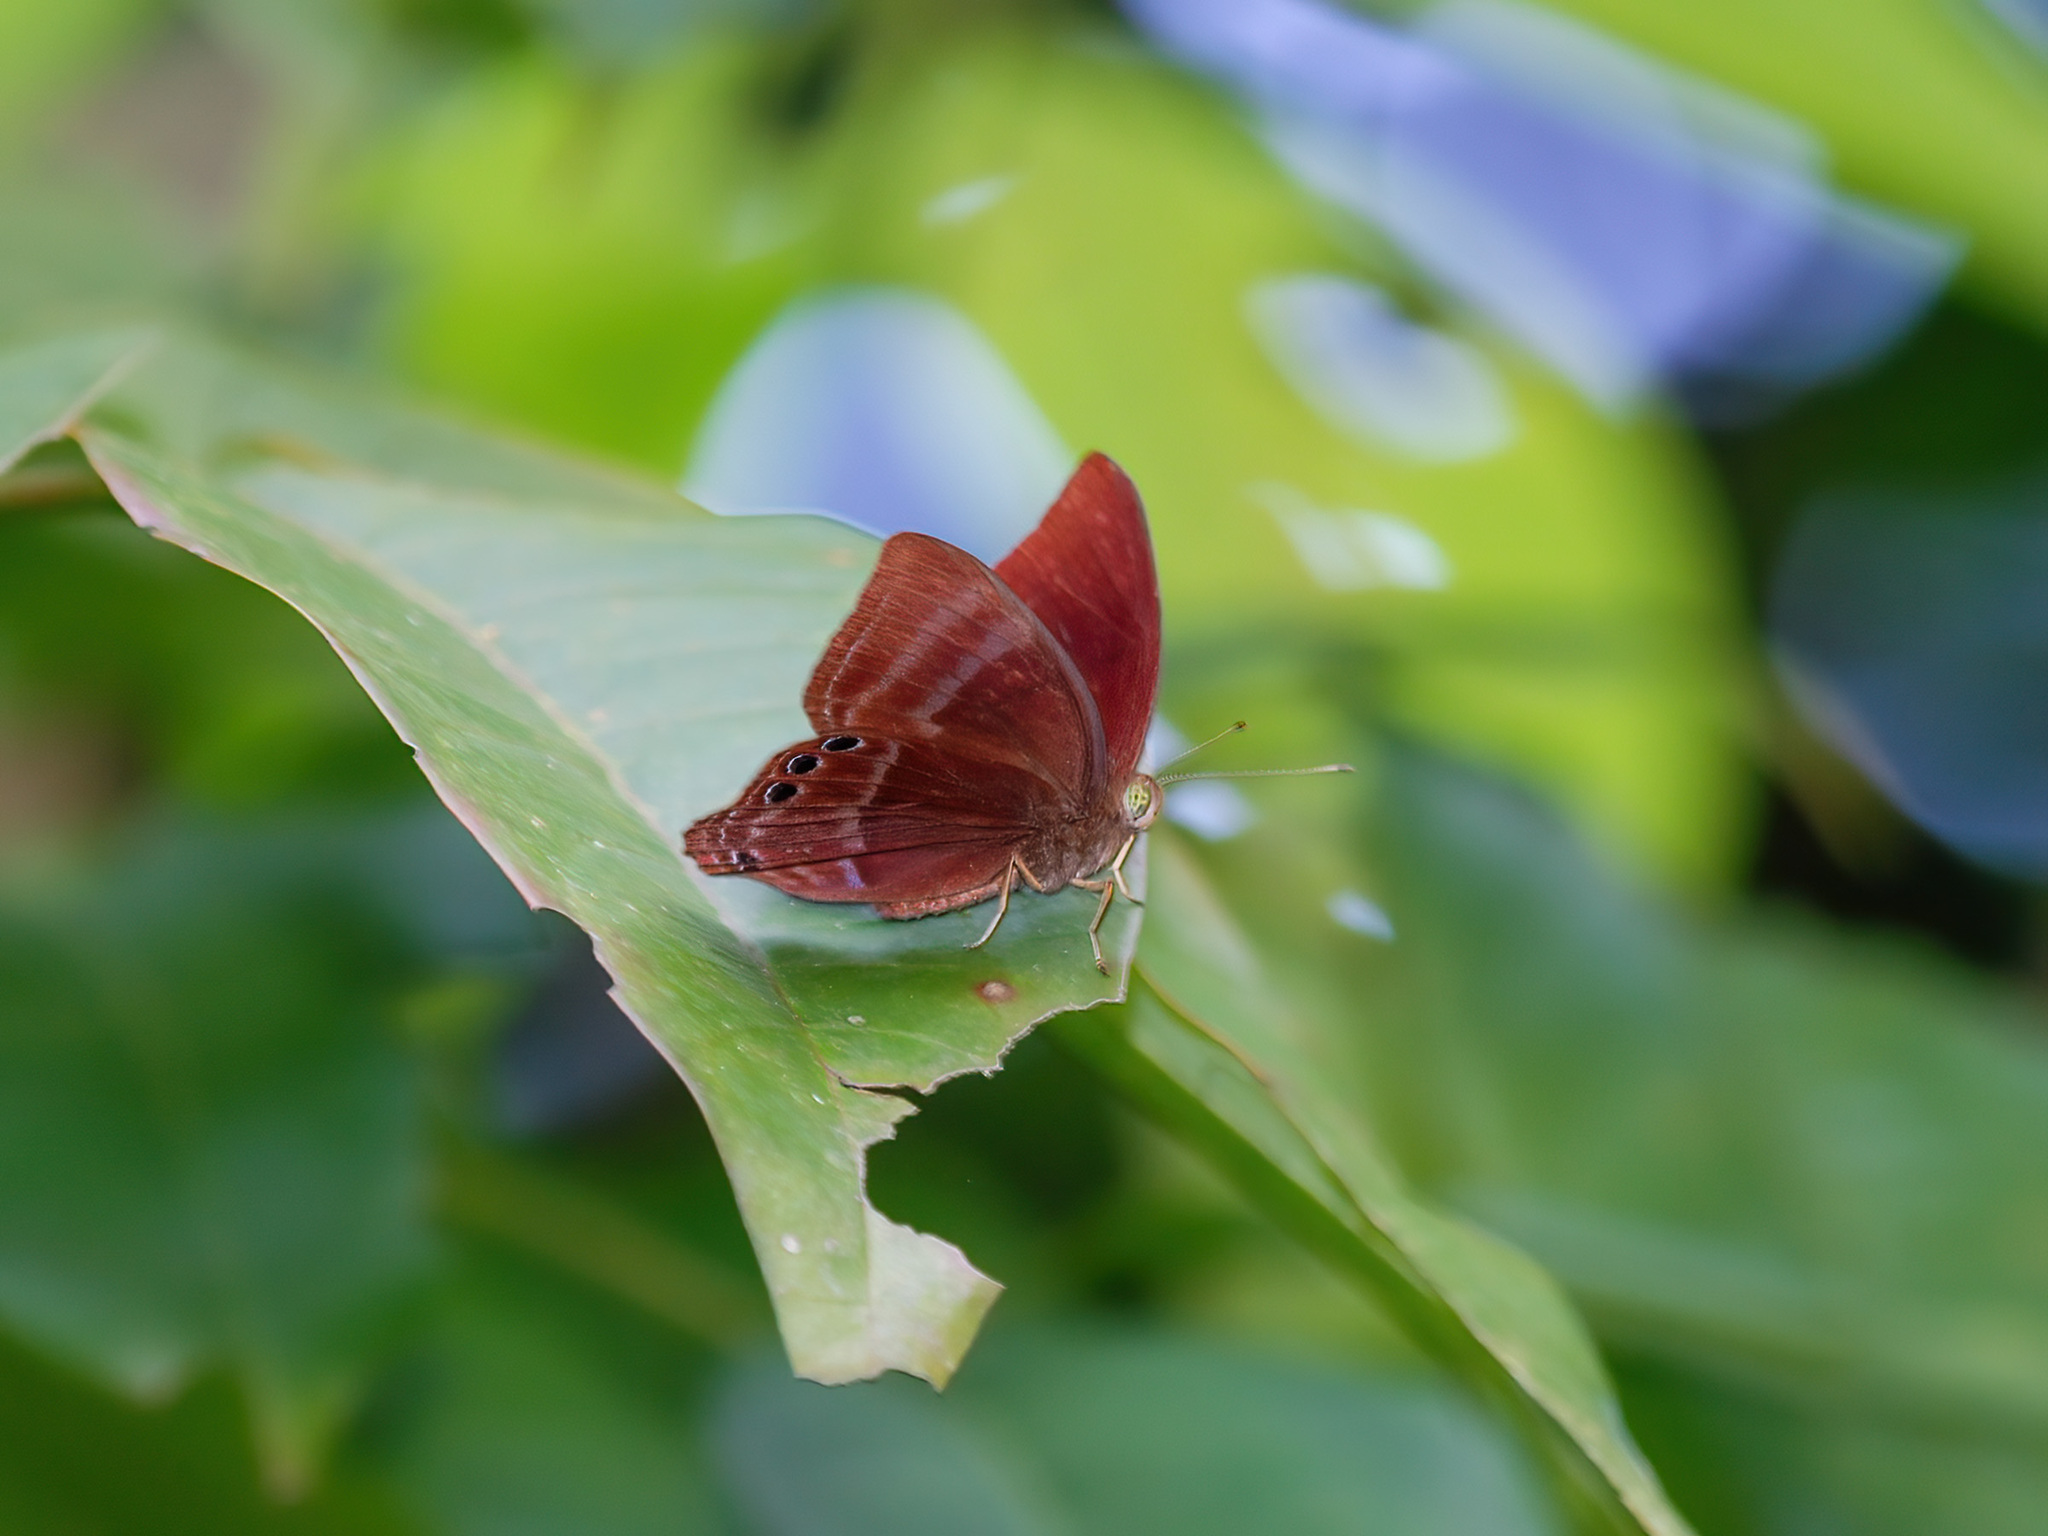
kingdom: Animalia
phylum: Arthropoda
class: Insecta
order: Lepidoptera
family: Lycaenidae
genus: Abisara
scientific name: Abisara saturata
